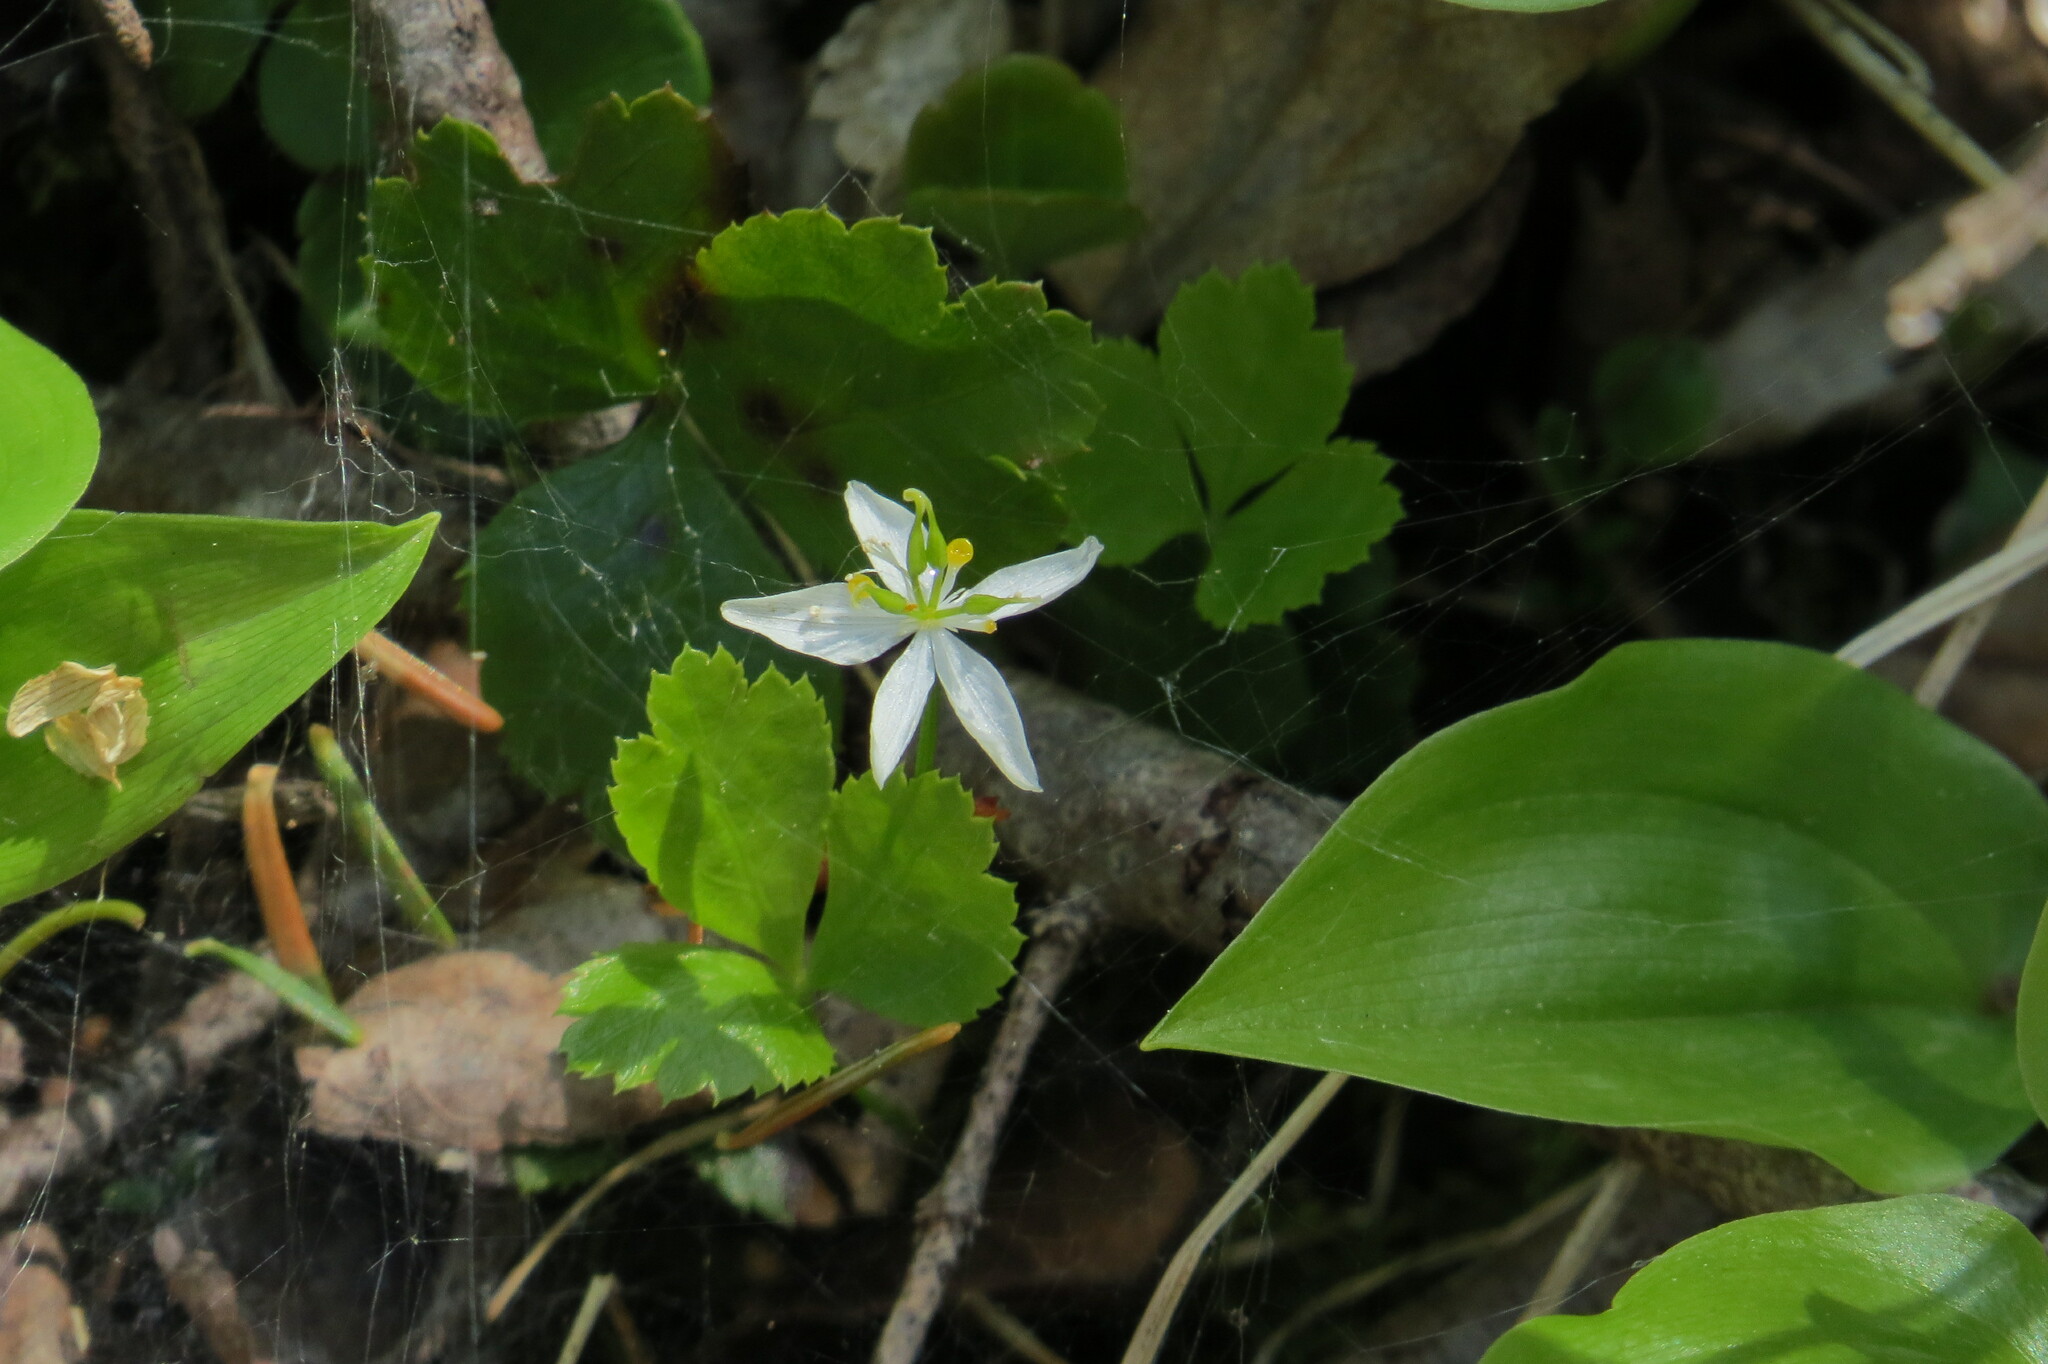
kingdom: Plantae
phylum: Tracheophyta
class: Magnoliopsida
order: Ranunculales
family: Ranunculaceae
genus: Coptis
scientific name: Coptis trifolia
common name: Canker-root
